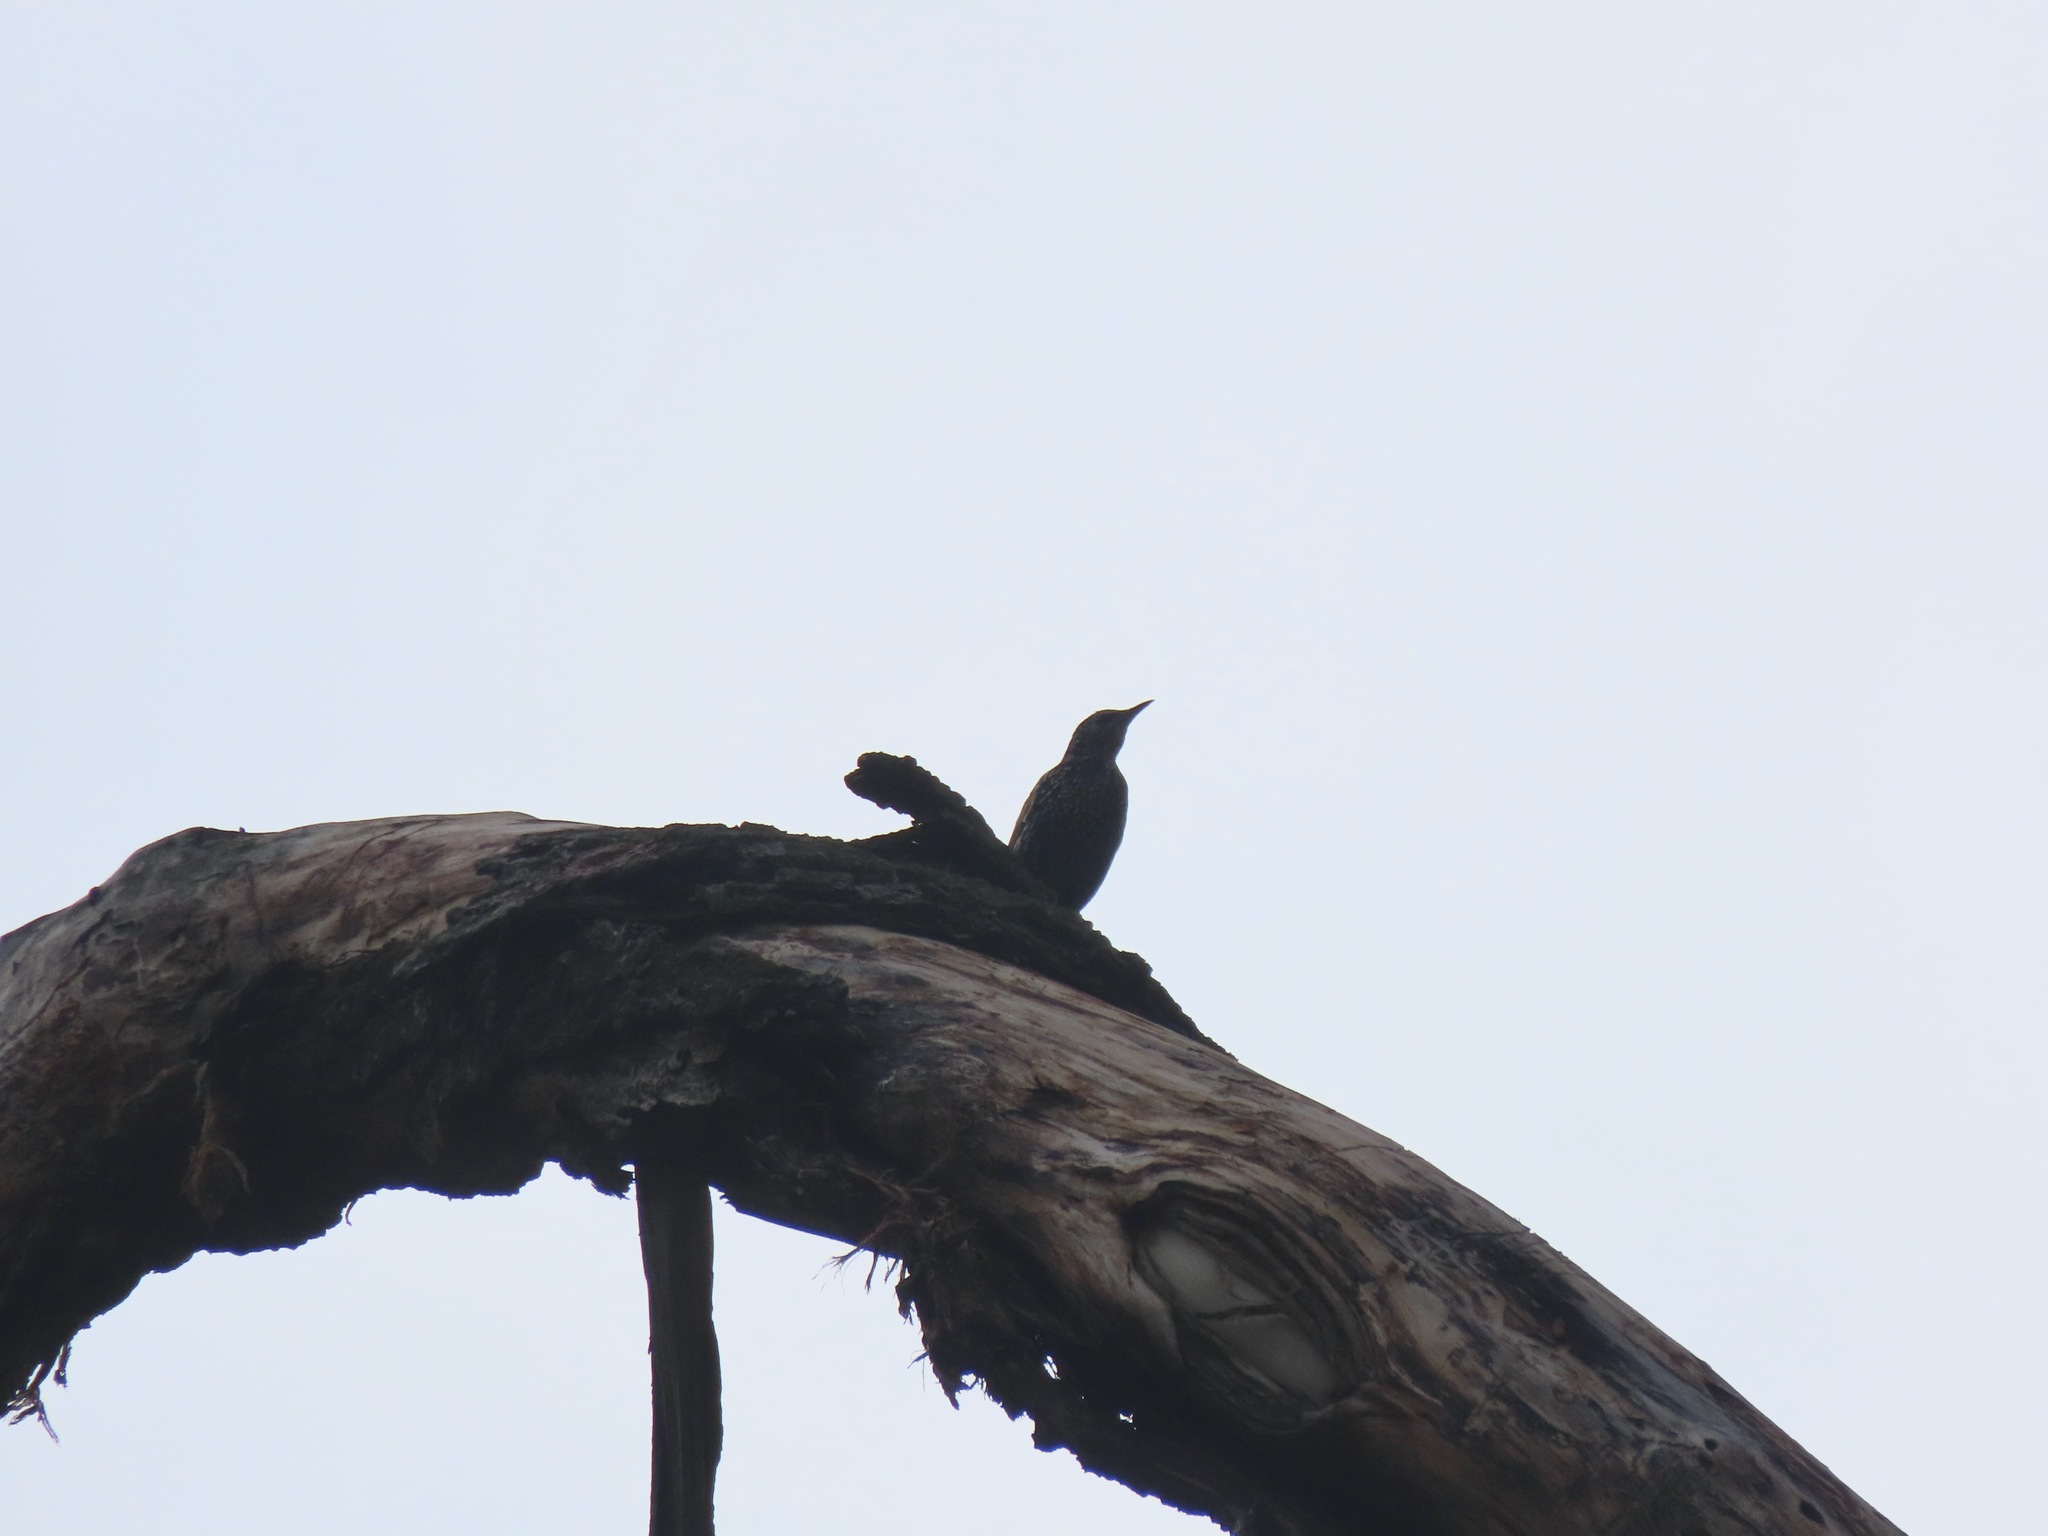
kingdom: Animalia
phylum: Chordata
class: Aves
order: Passeriformes
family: Sturnidae
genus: Sturnus
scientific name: Sturnus vulgaris
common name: Common starling
